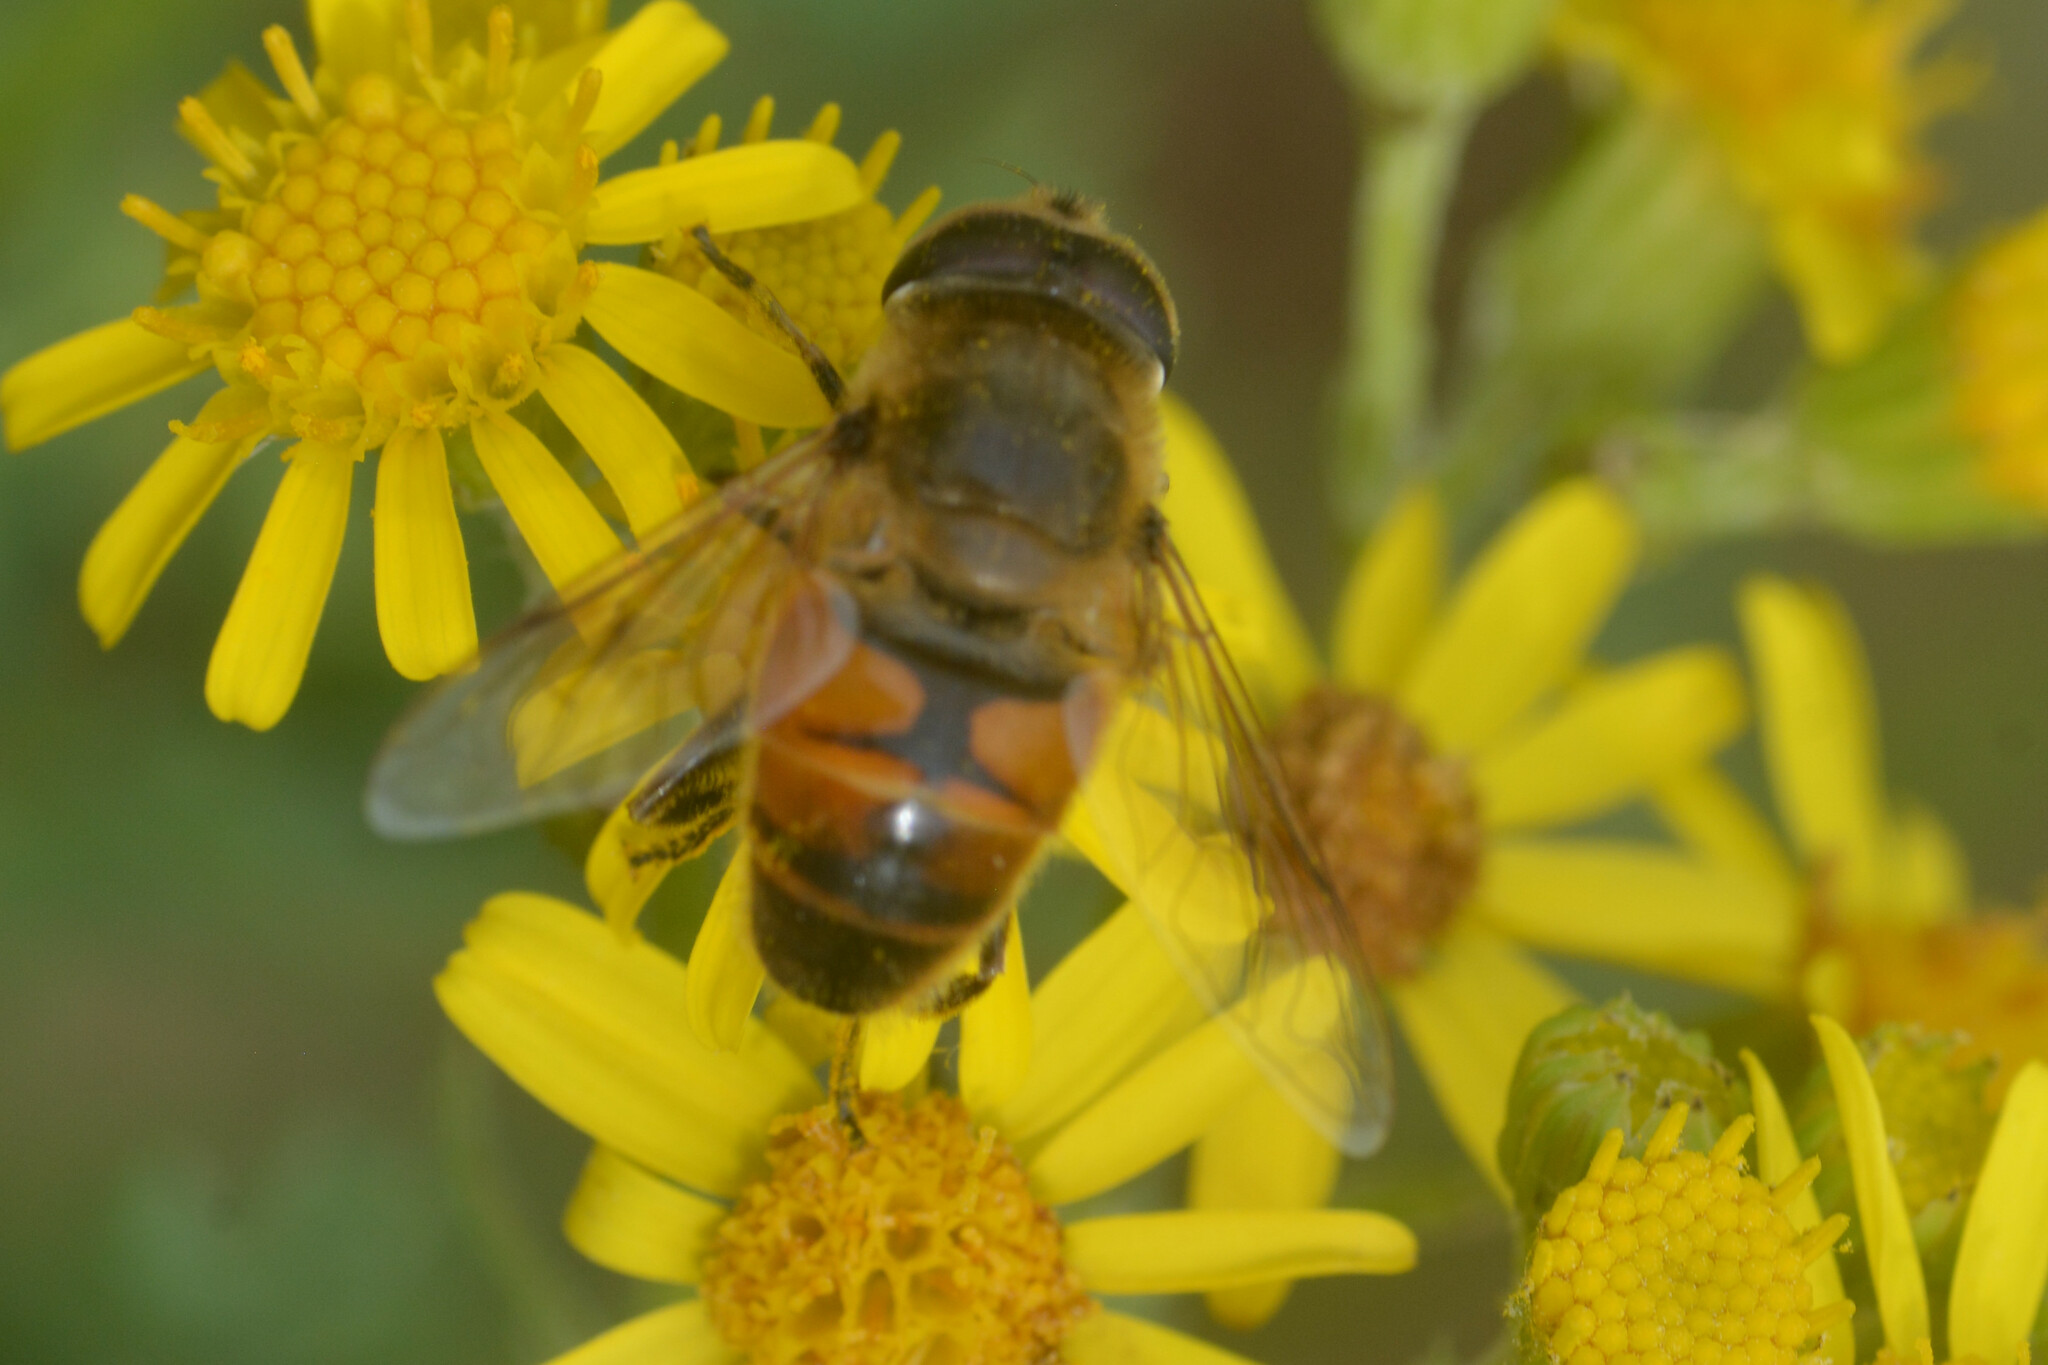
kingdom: Animalia
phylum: Arthropoda
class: Insecta
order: Diptera
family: Syrphidae
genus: Eristalis
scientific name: Eristalis tenax
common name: Drone fly
